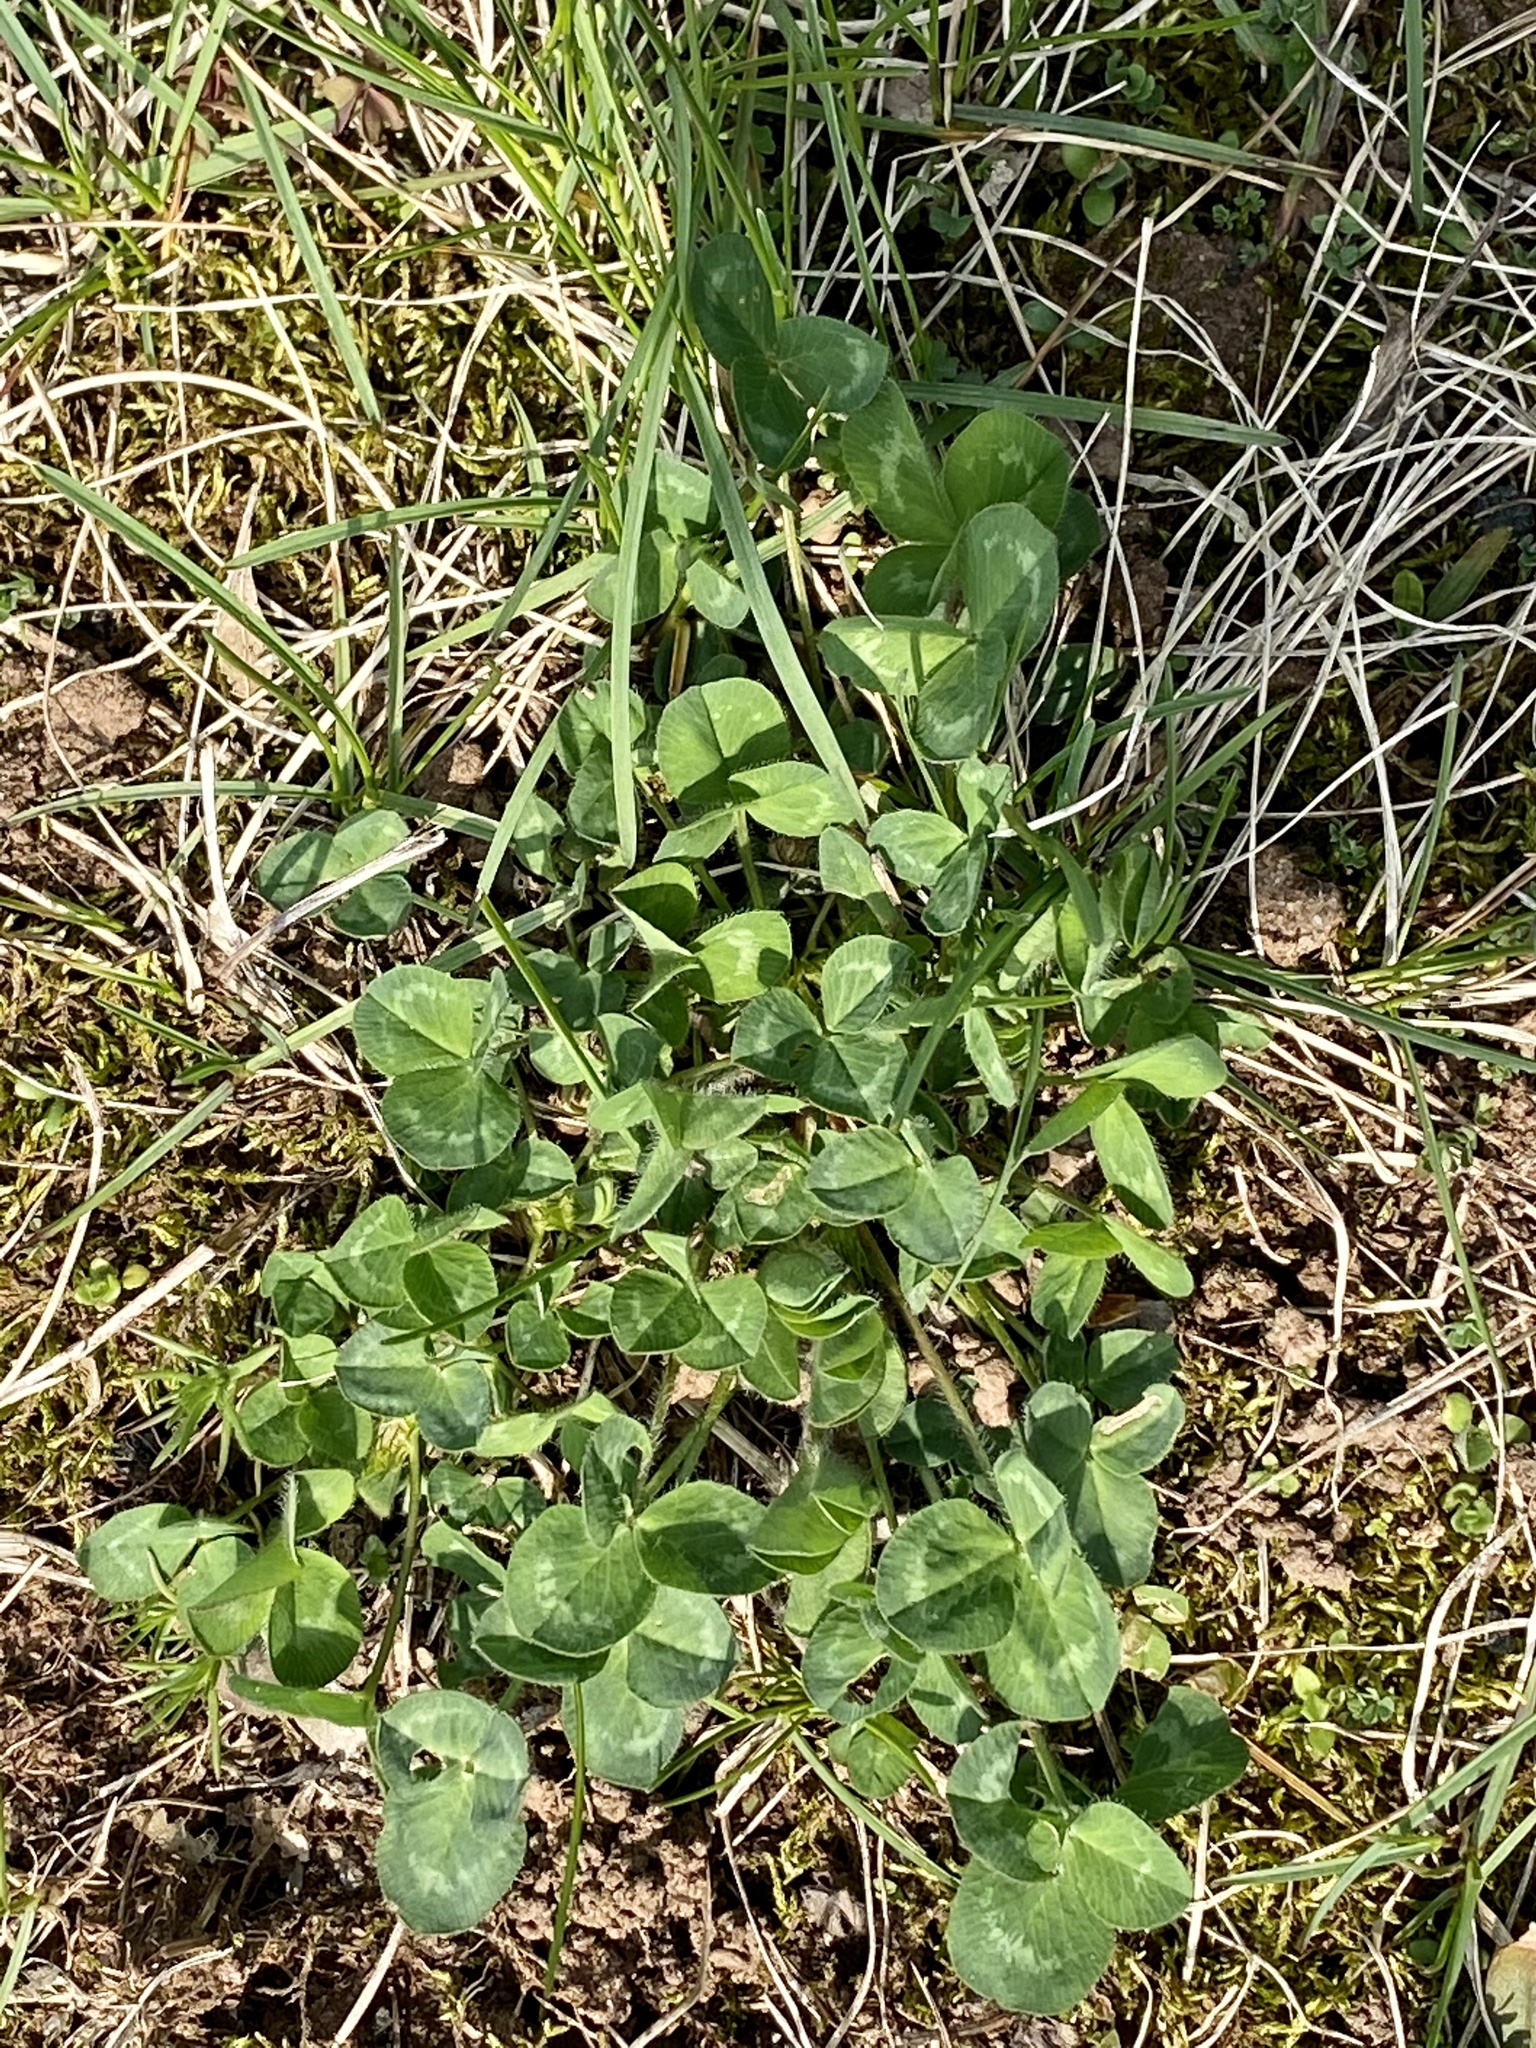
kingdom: Plantae
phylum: Tracheophyta
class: Magnoliopsida
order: Fabales
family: Fabaceae
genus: Trifolium
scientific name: Trifolium pratense
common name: Red clover
